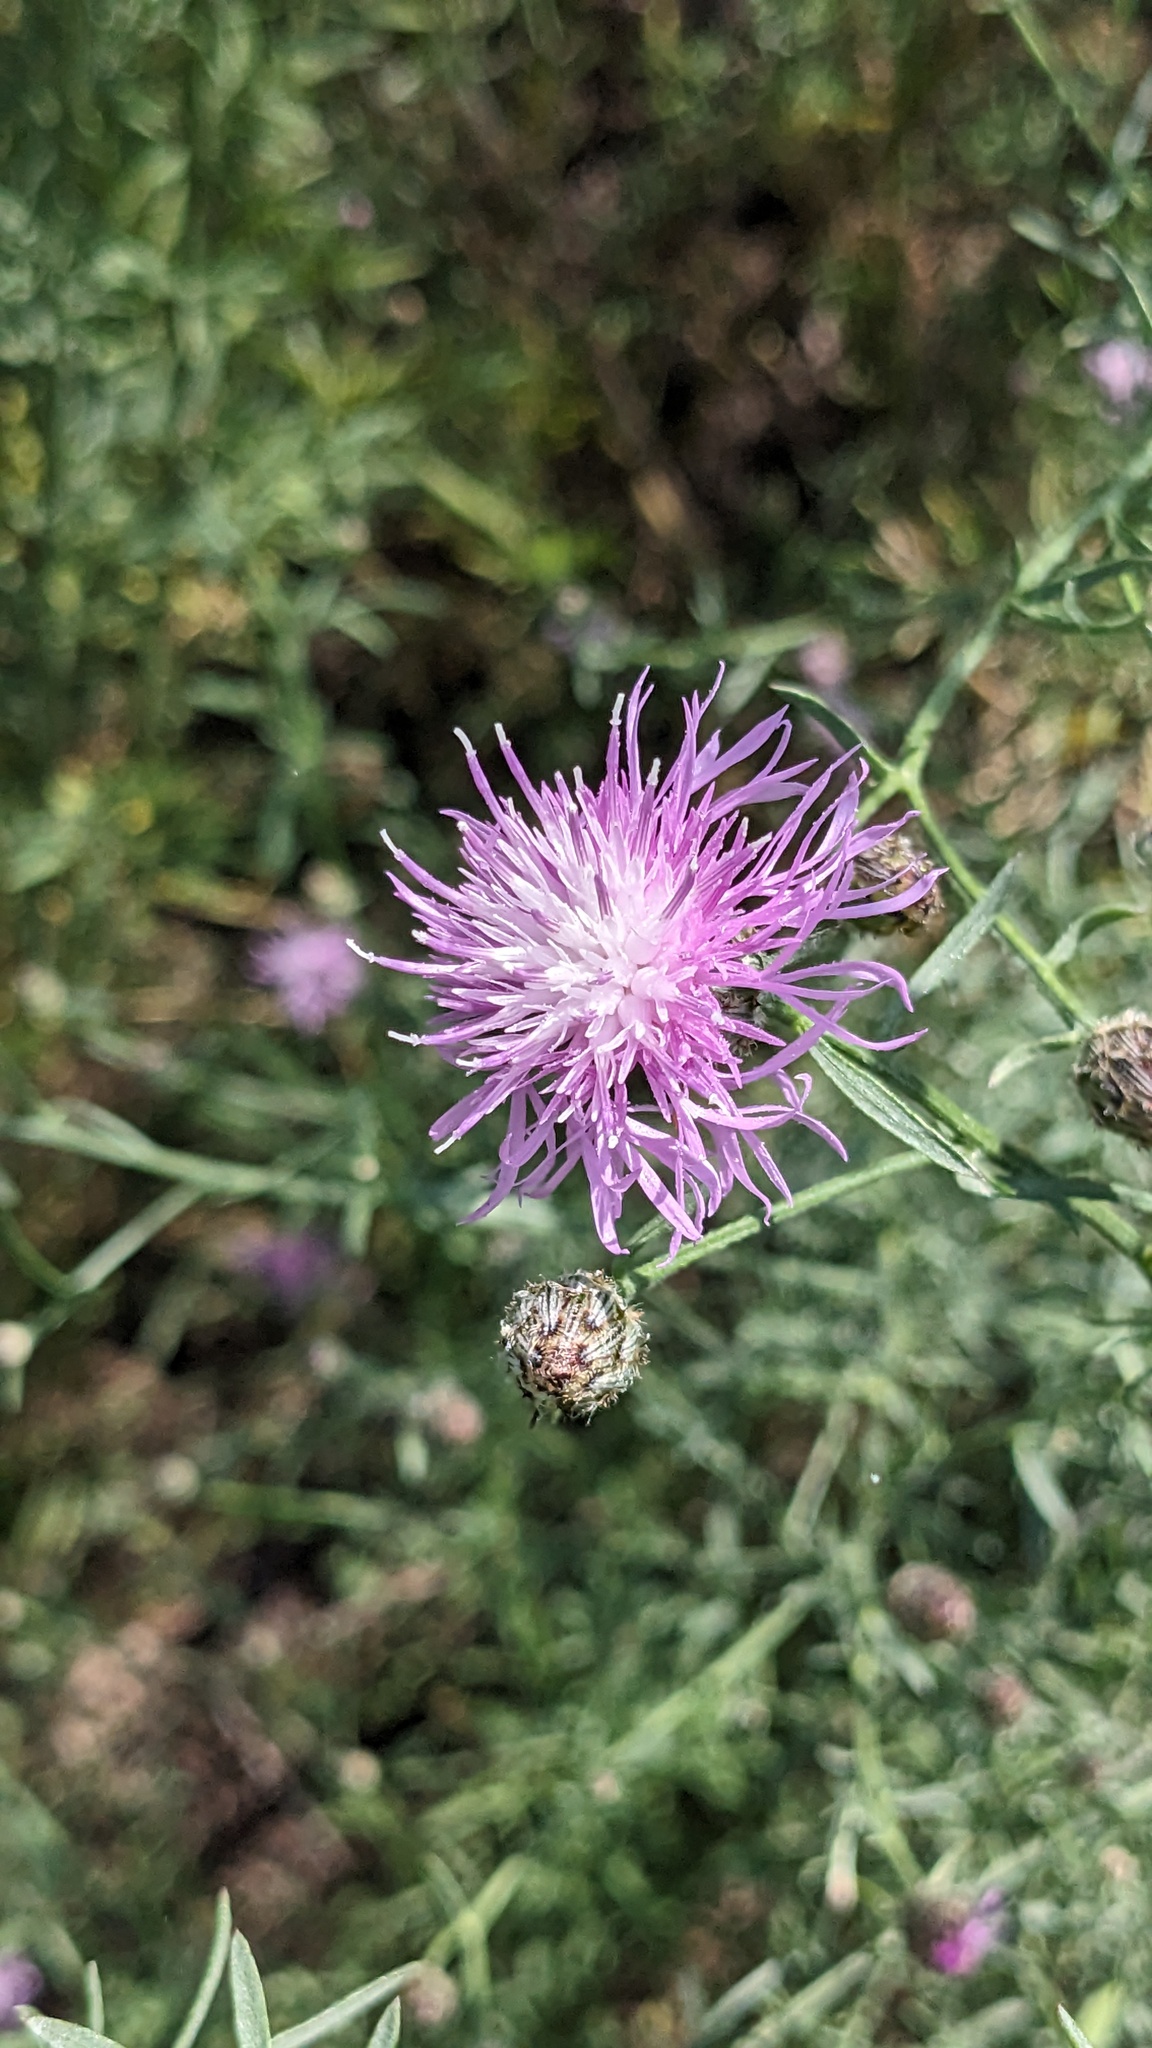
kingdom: Plantae
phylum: Tracheophyta
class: Magnoliopsida
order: Asterales
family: Asteraceae
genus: Centaurea
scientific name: Centaurea stoebe
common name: Spotted knapweed
